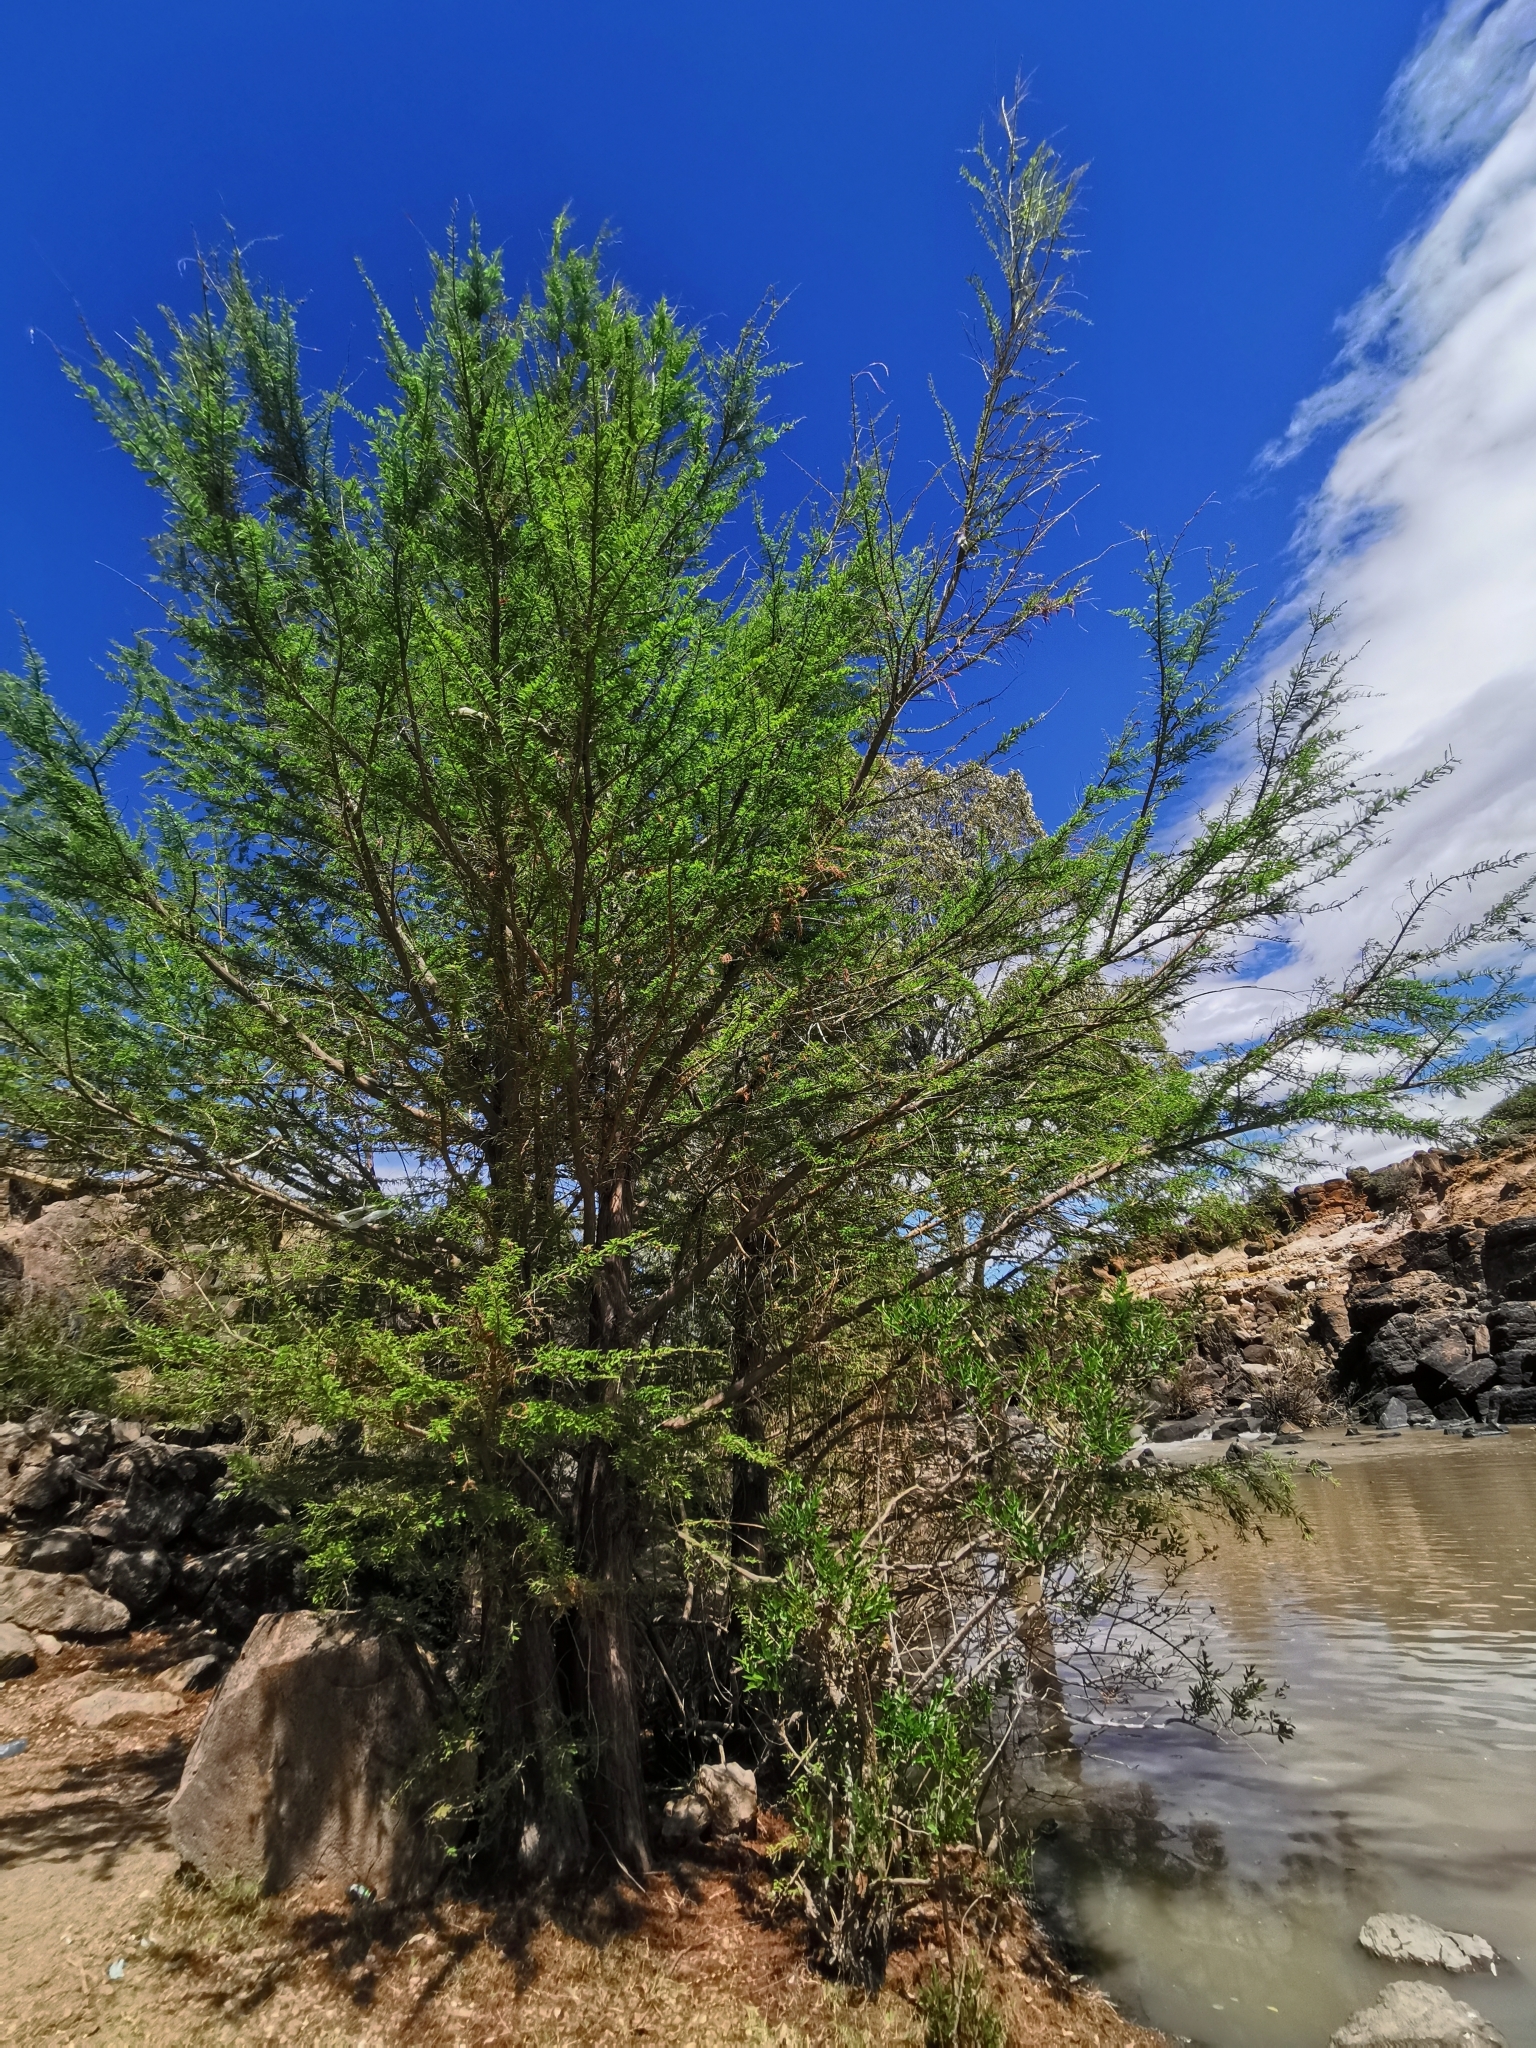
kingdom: Plantae
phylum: Tracheophyta
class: Pinopsida
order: Pinales
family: Cupressaceae
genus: Taxodium
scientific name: Taxodium mucronatum
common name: Montezume bald cypress
